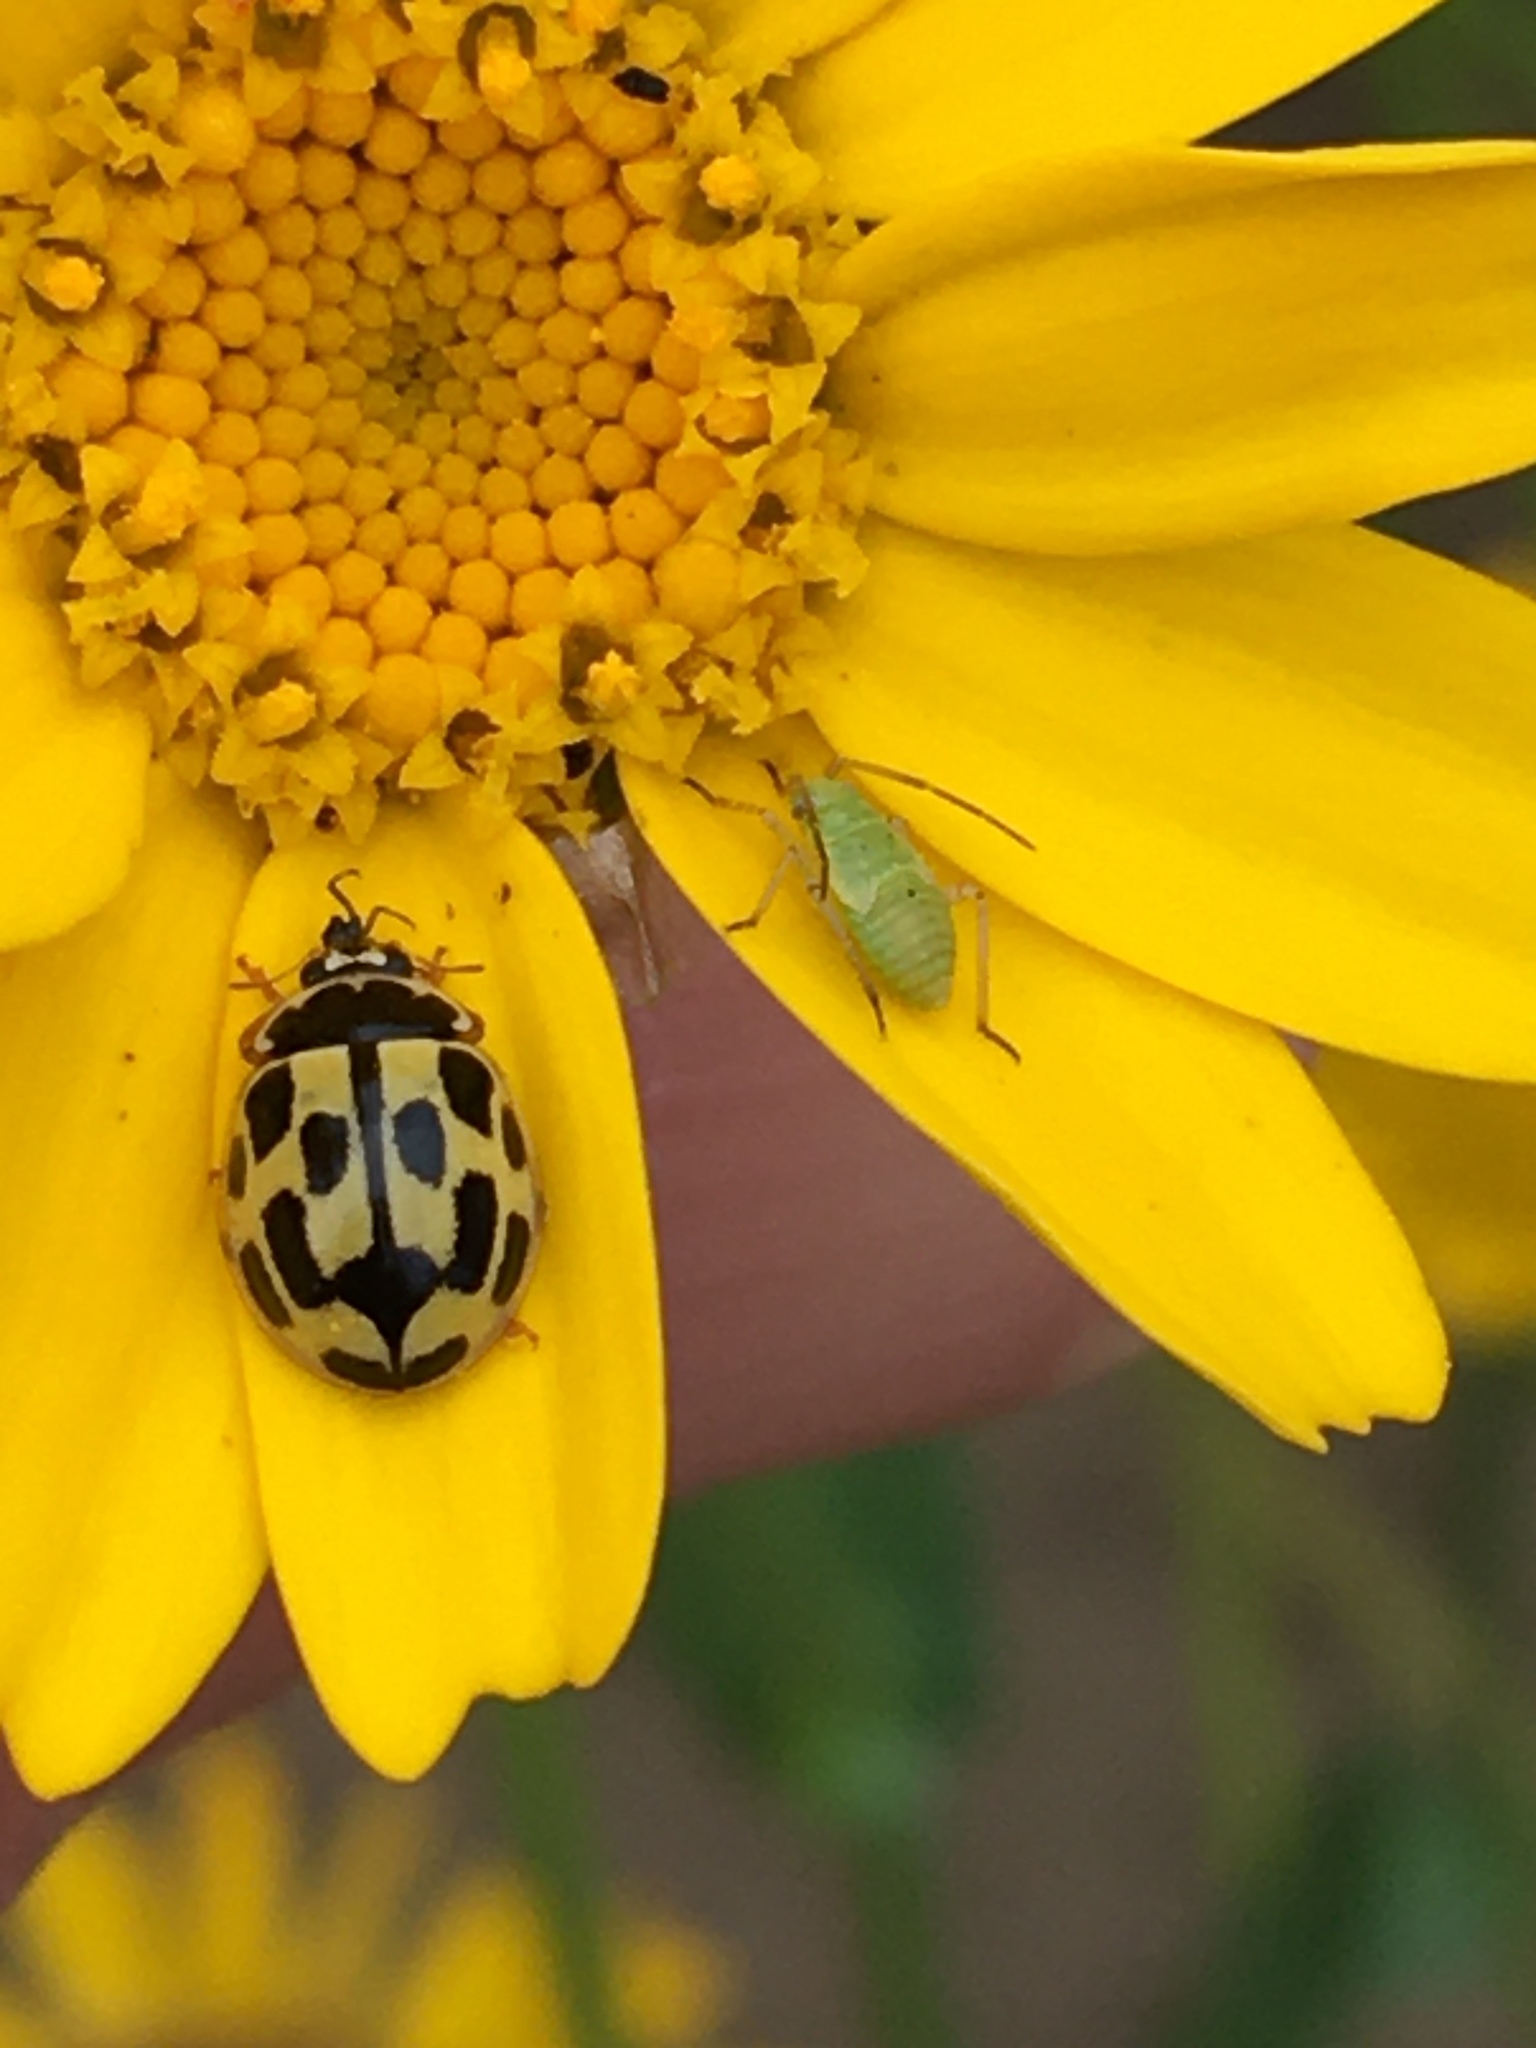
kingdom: Animalia
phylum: Arthropoda
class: Insecta
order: Coleoptera
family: Coccinellidae
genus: Propylaea
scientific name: Propylaea quatuordecimpunctata
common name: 14-spotted ladybird beetle
